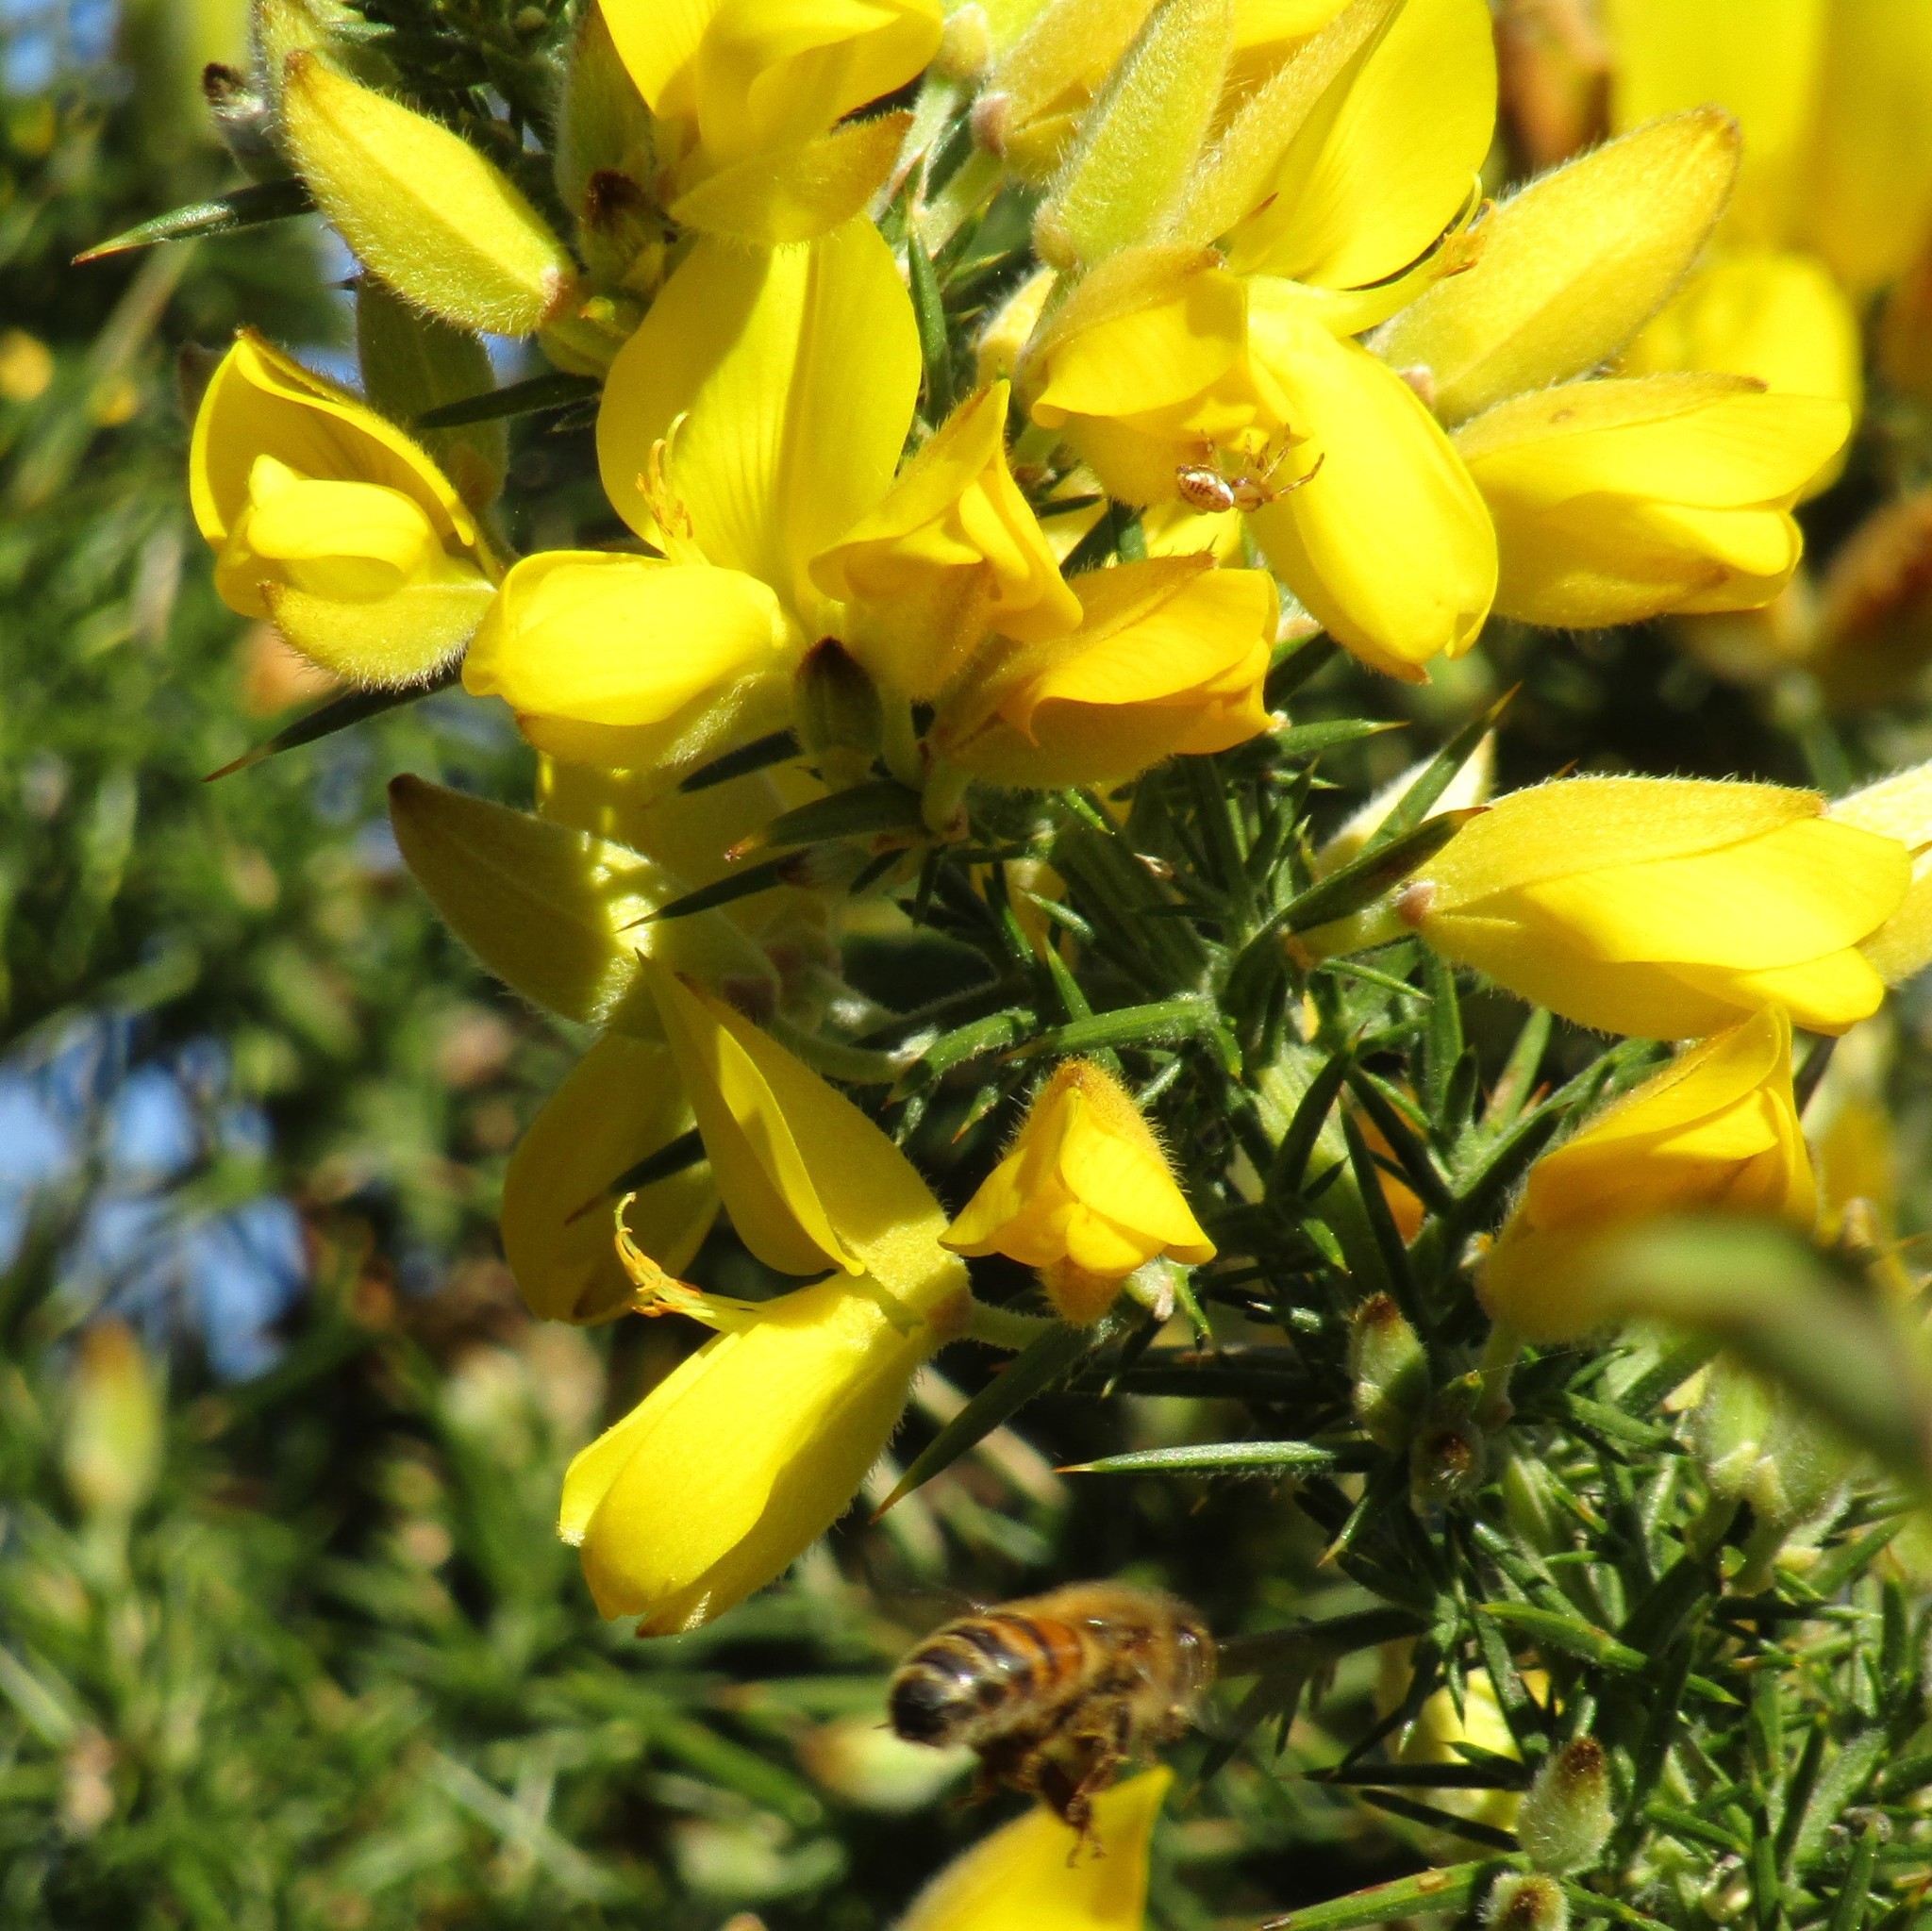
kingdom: Plantae
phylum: Tracheophyta
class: Magnoliopsida
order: Fabales
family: Fabaceae
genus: Ulex
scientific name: Ulex europaeus
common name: Common gorse
